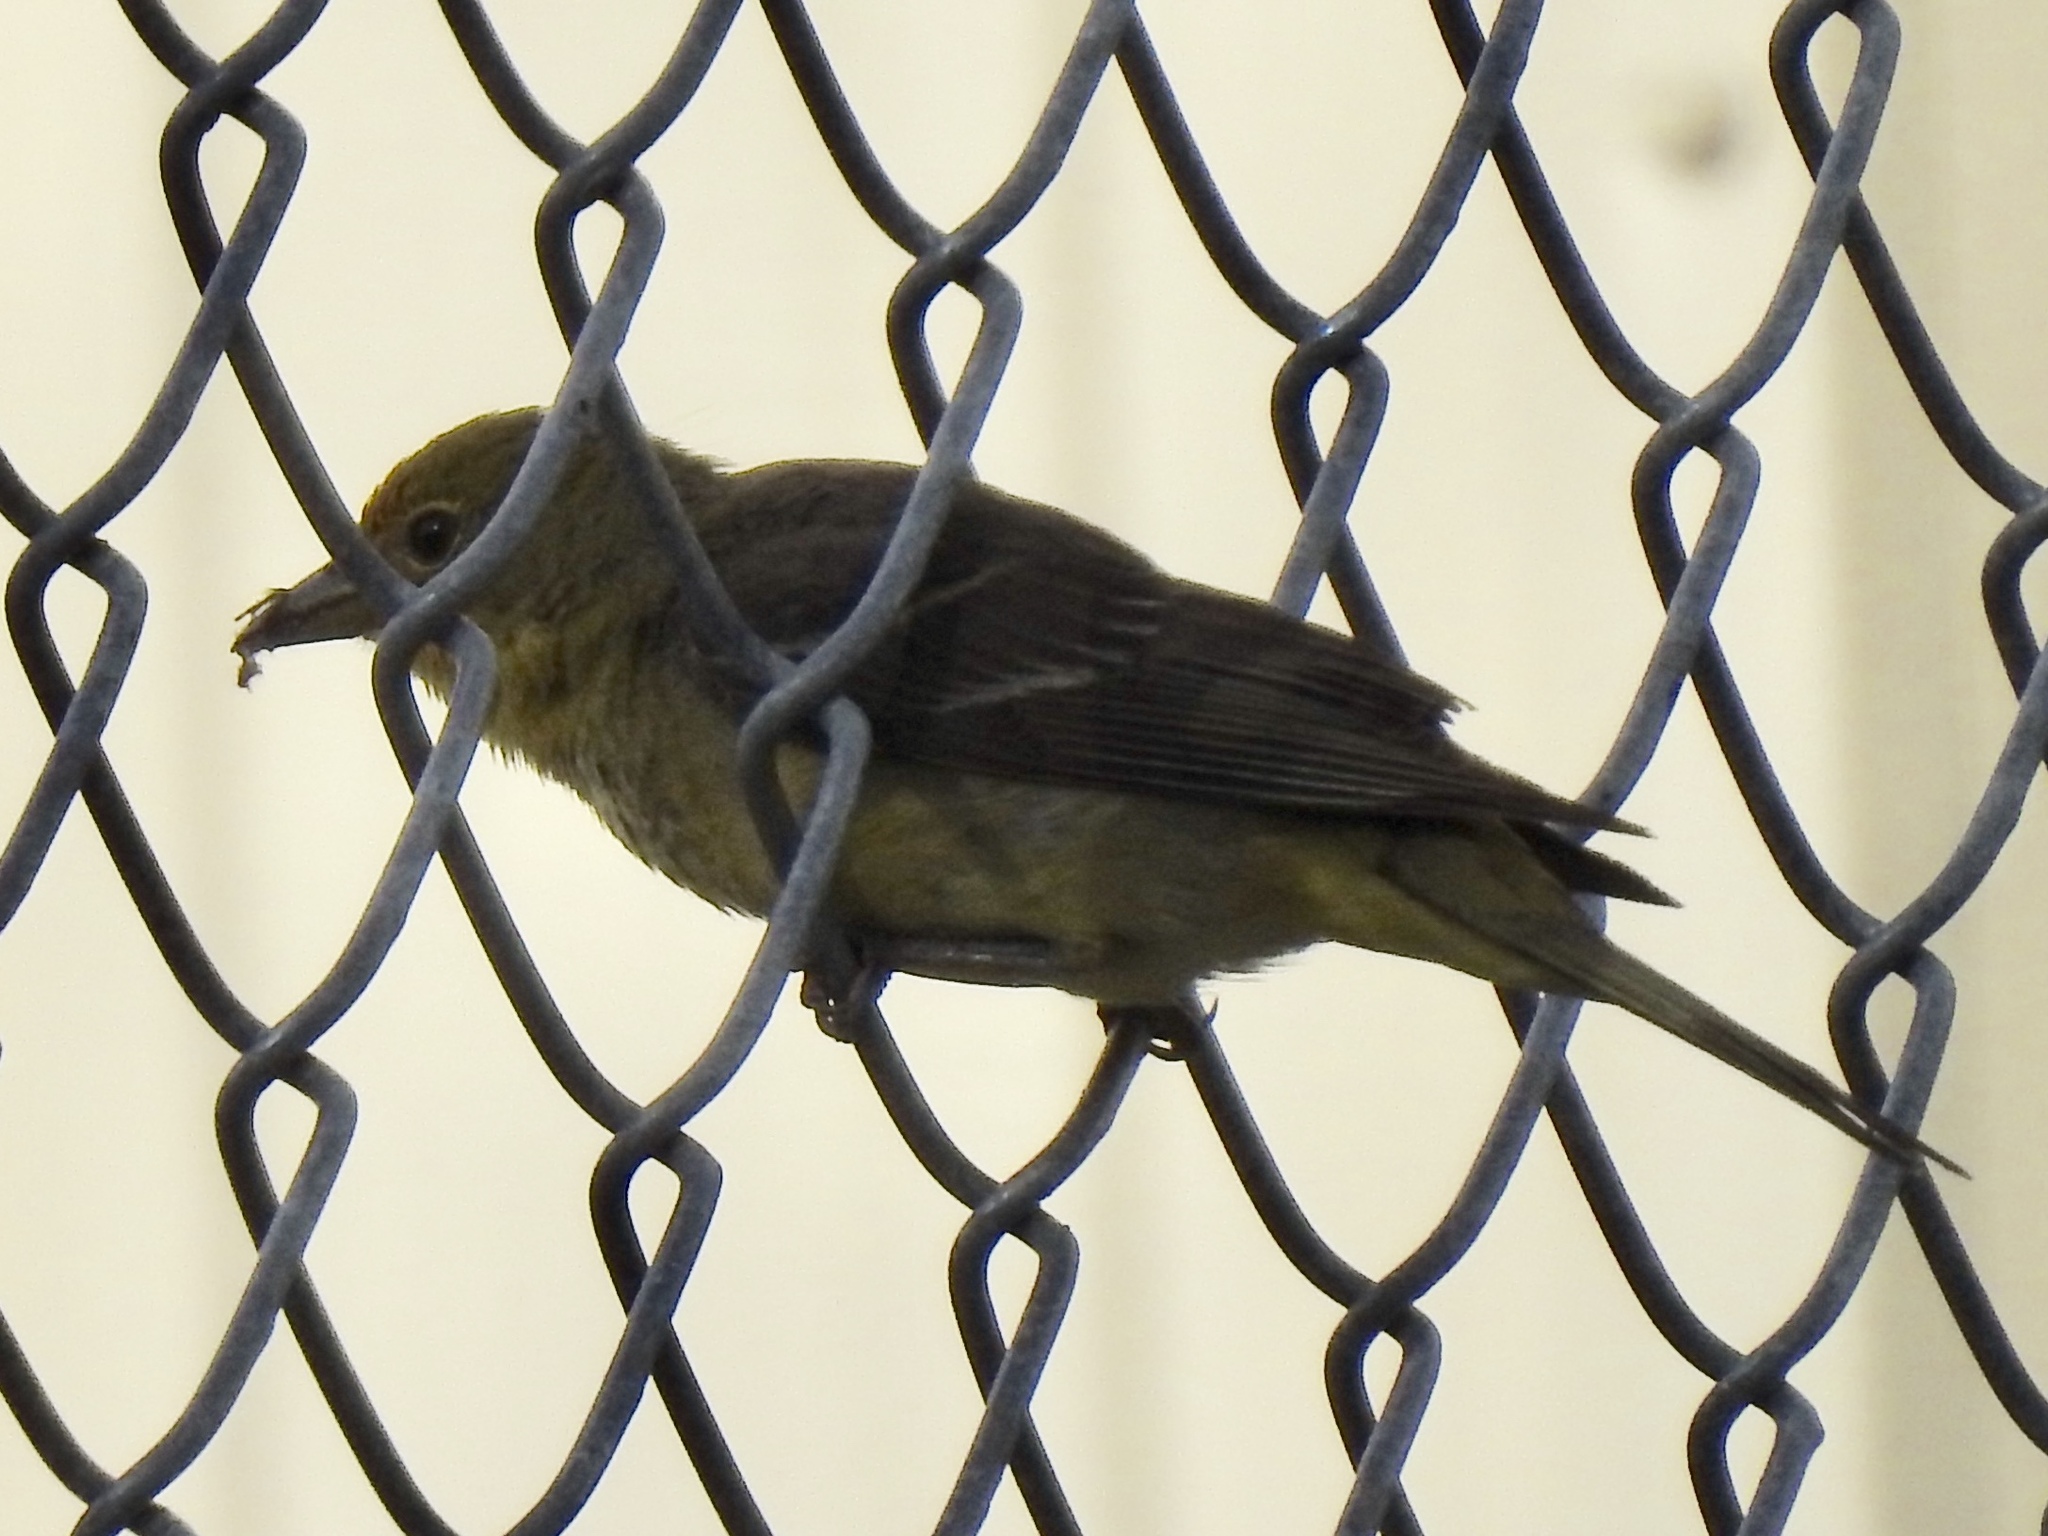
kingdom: Animalia
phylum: Chordata
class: Aves
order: Passeriformes
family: Cardinalidae
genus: Piranga
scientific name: Piranga ludoviciana
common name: Western tanager
